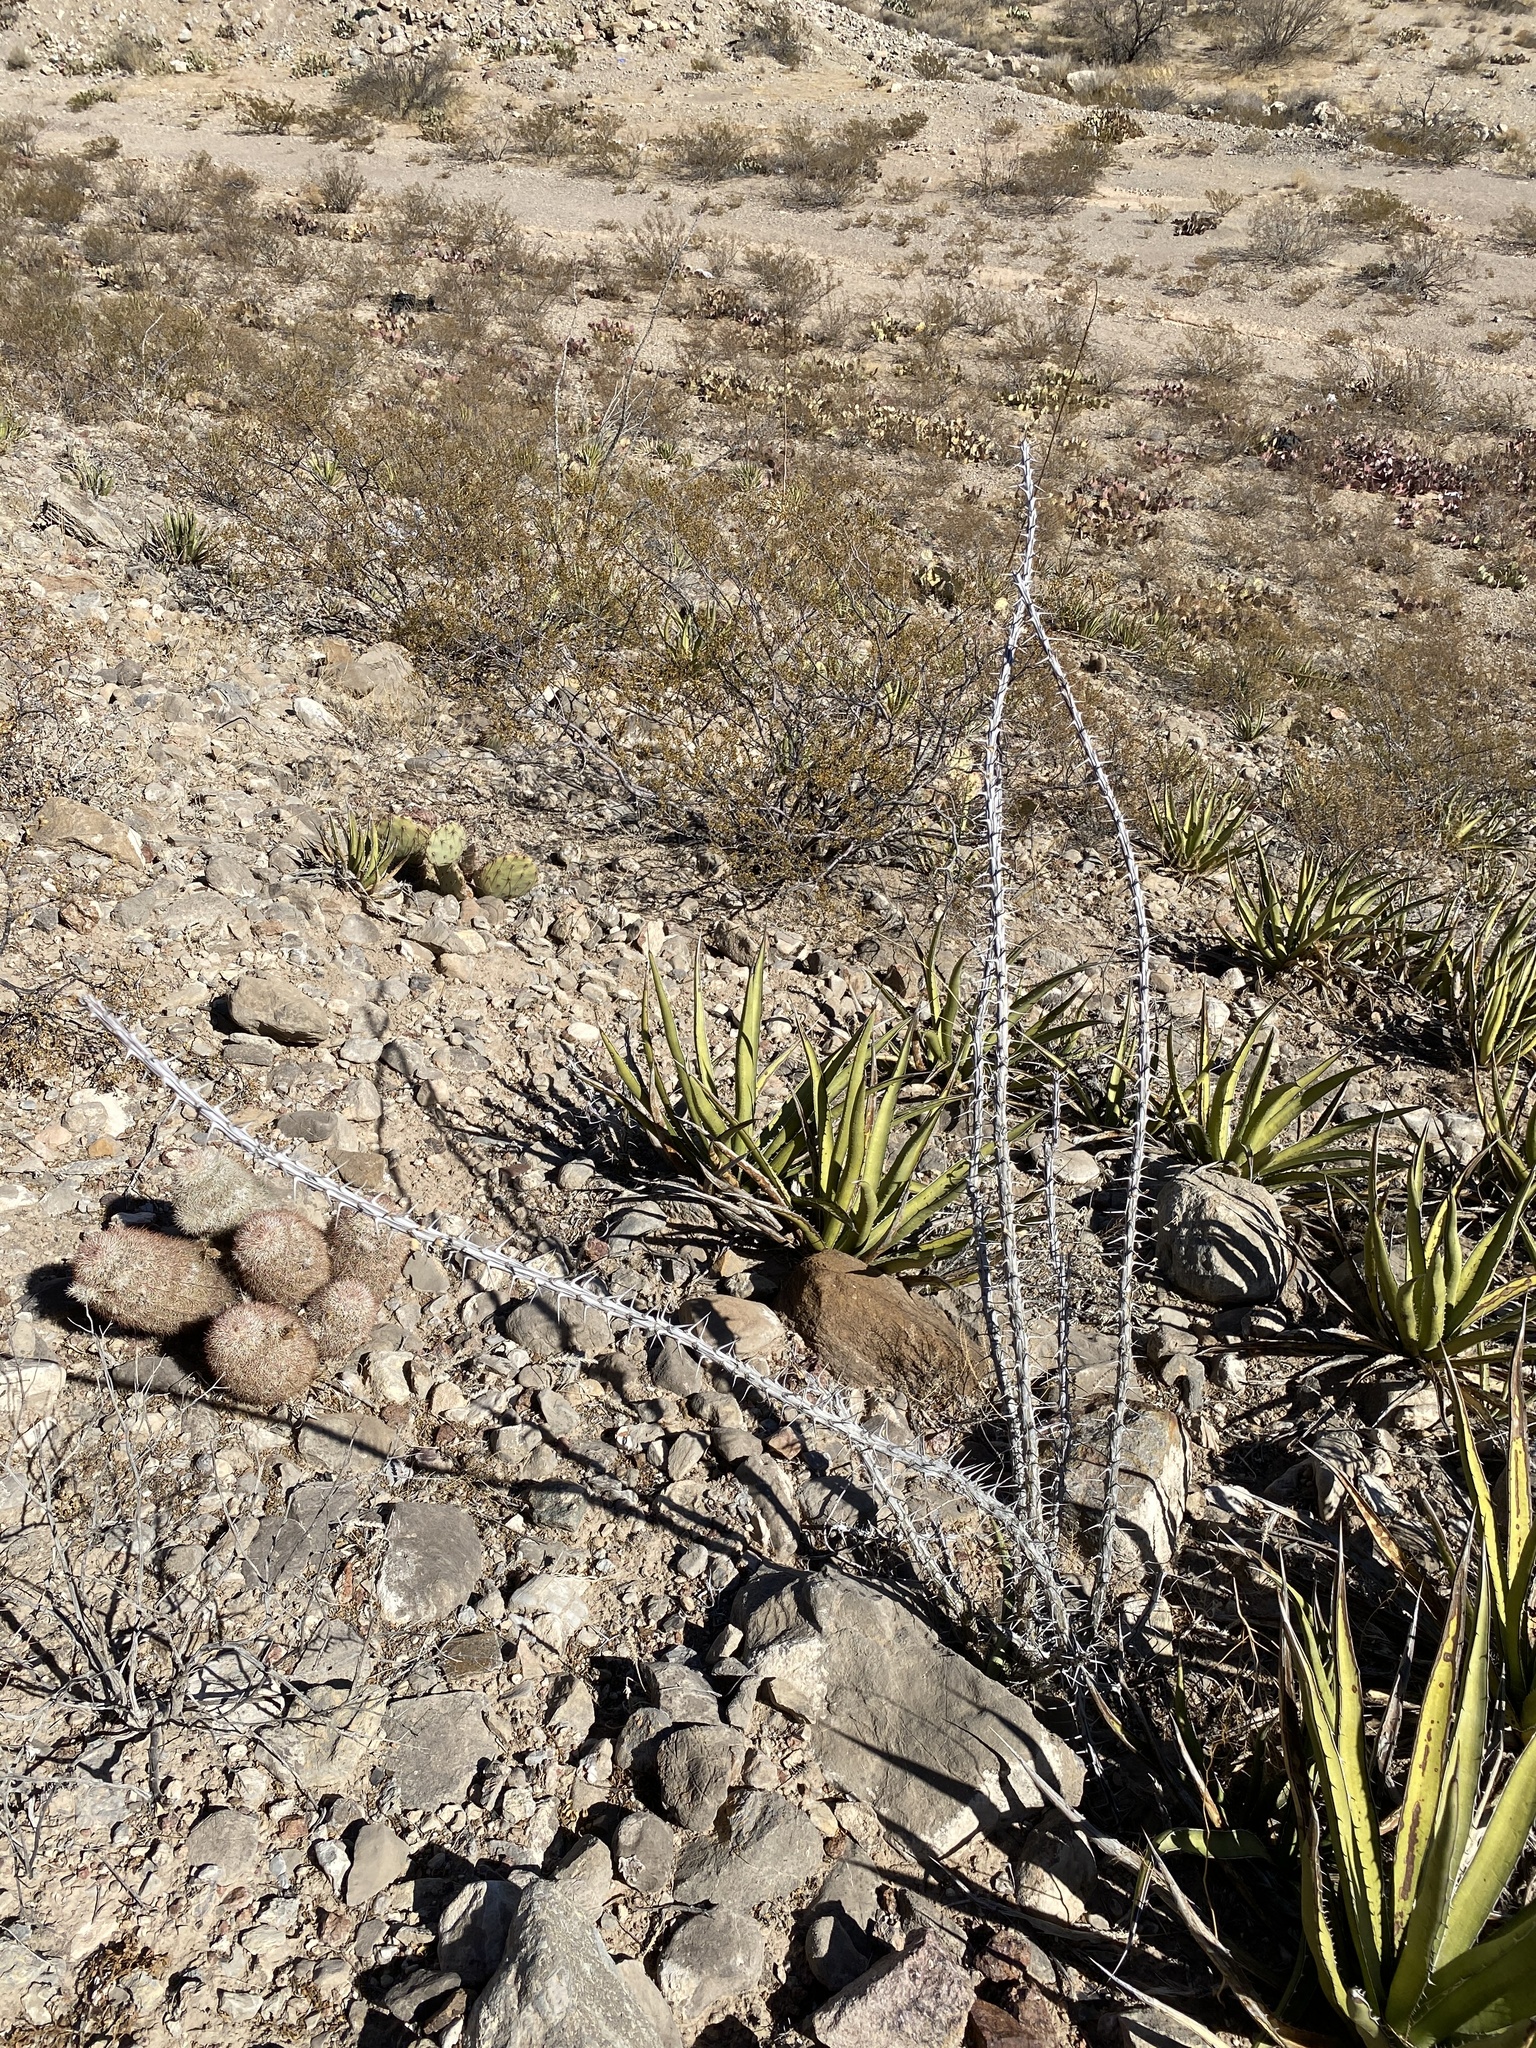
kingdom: Plantae
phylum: Tracheophyta
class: Magnoliopsida
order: Ericales
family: Fouquieriaceae
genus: Fouquieria
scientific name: Fouquieria splendens
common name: Vine-cactus
